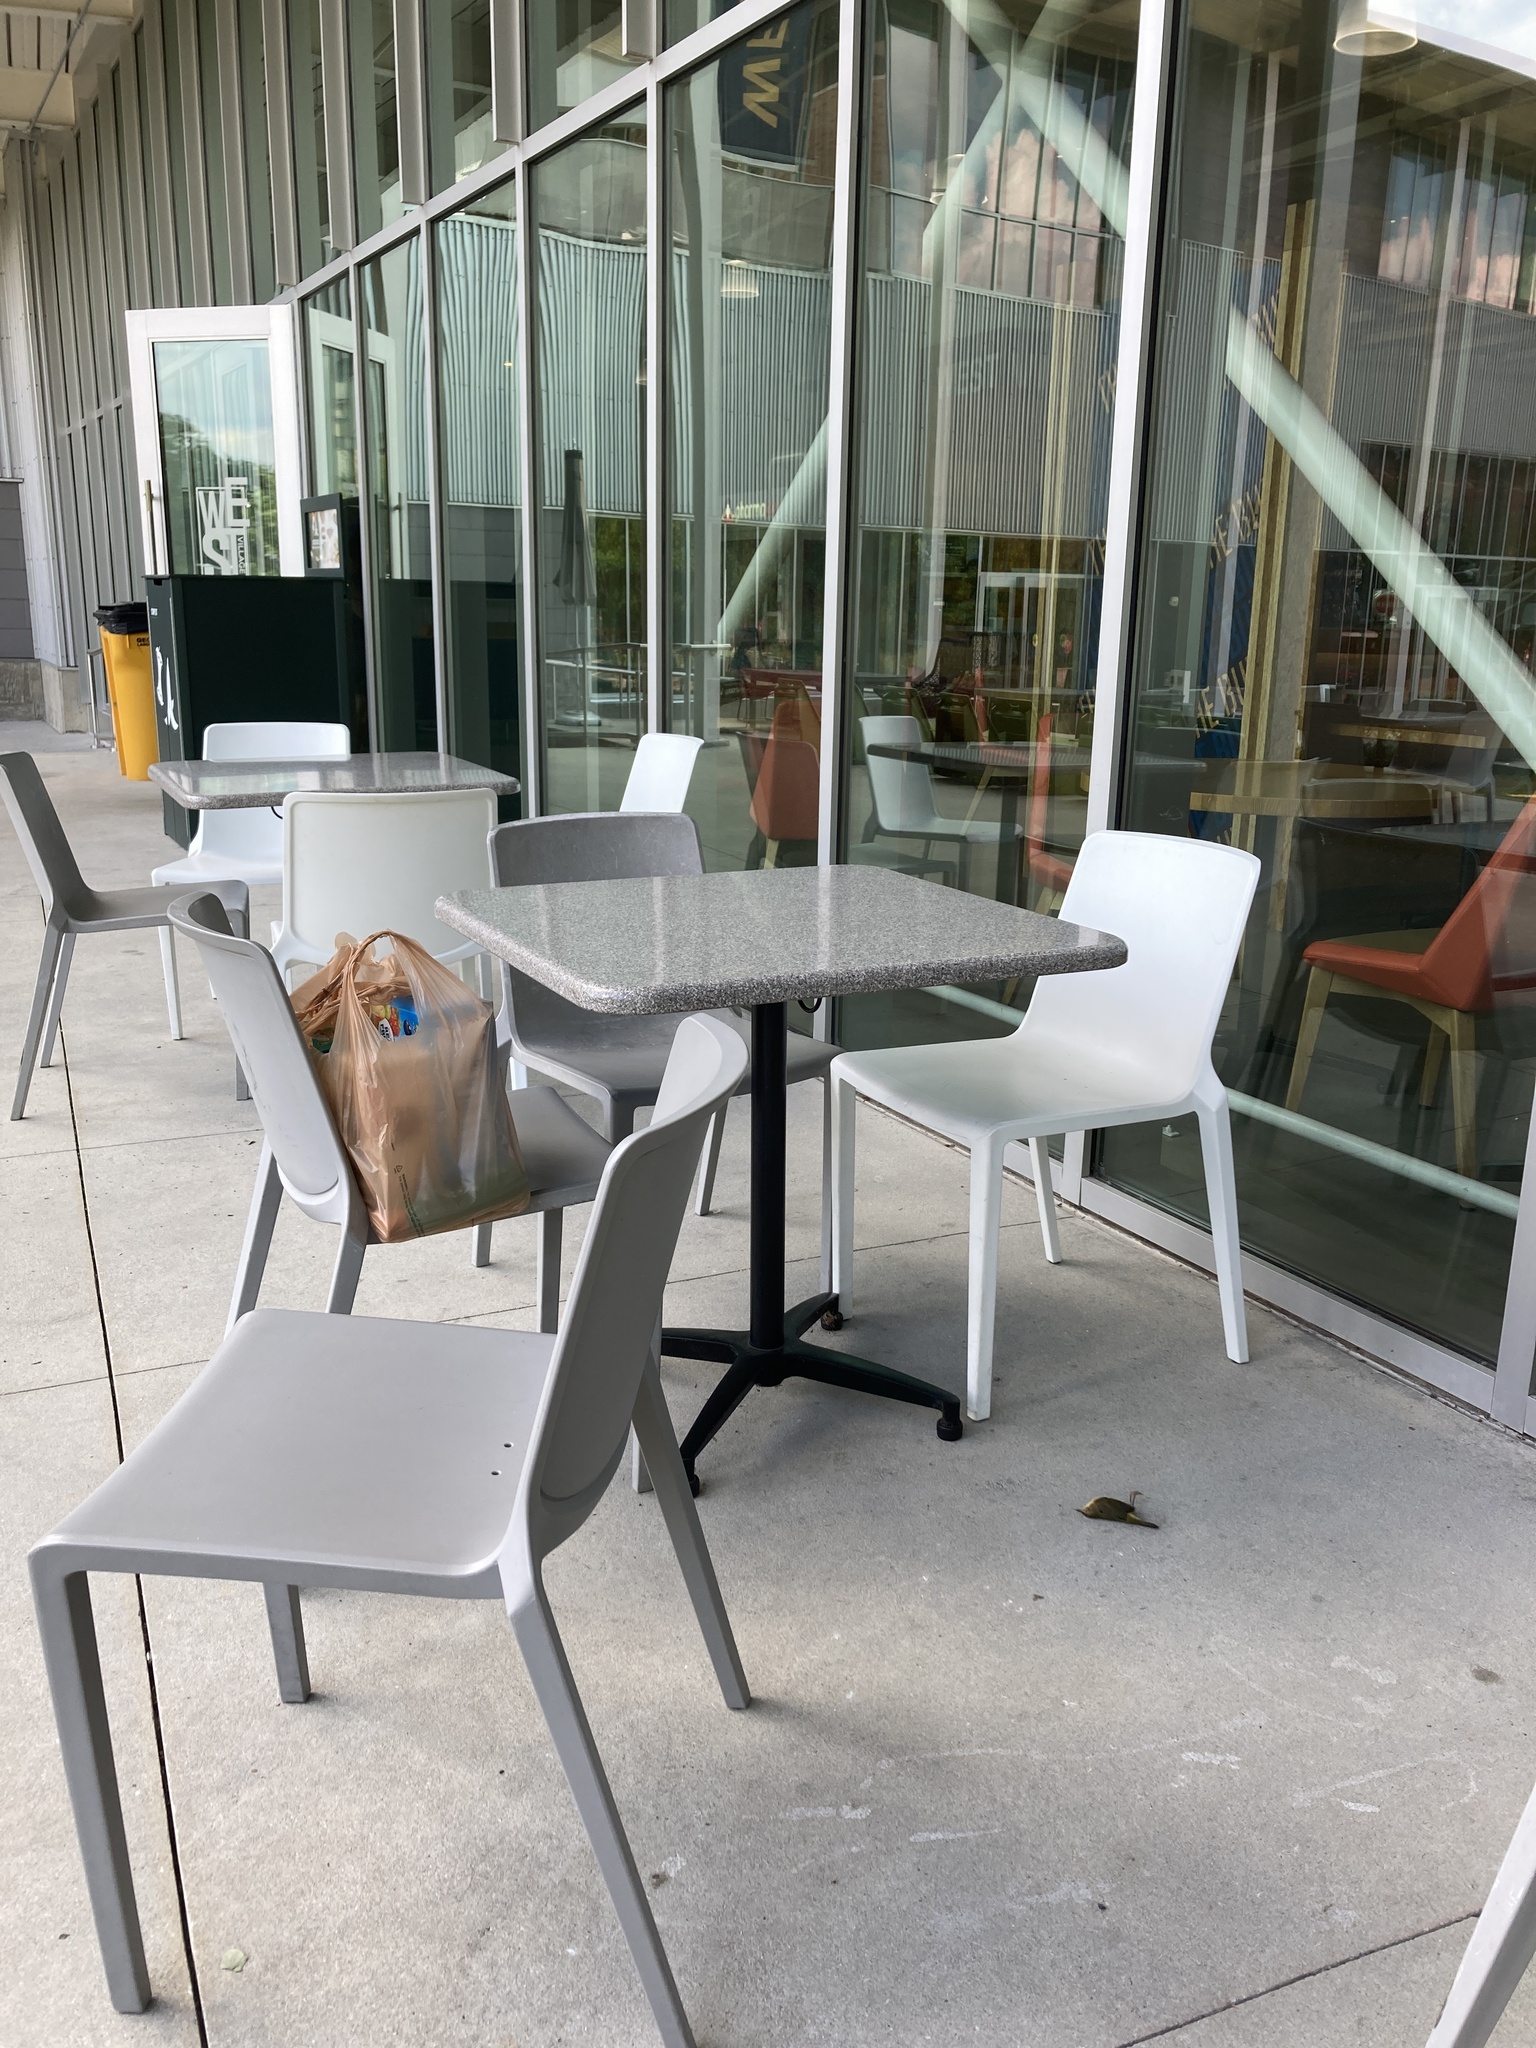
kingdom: Animalia
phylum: Chordata
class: Aves
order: Passeriformes
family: Parulidae
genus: Geothlypis
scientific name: Geothlypis trichas
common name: Common yellowthroat
